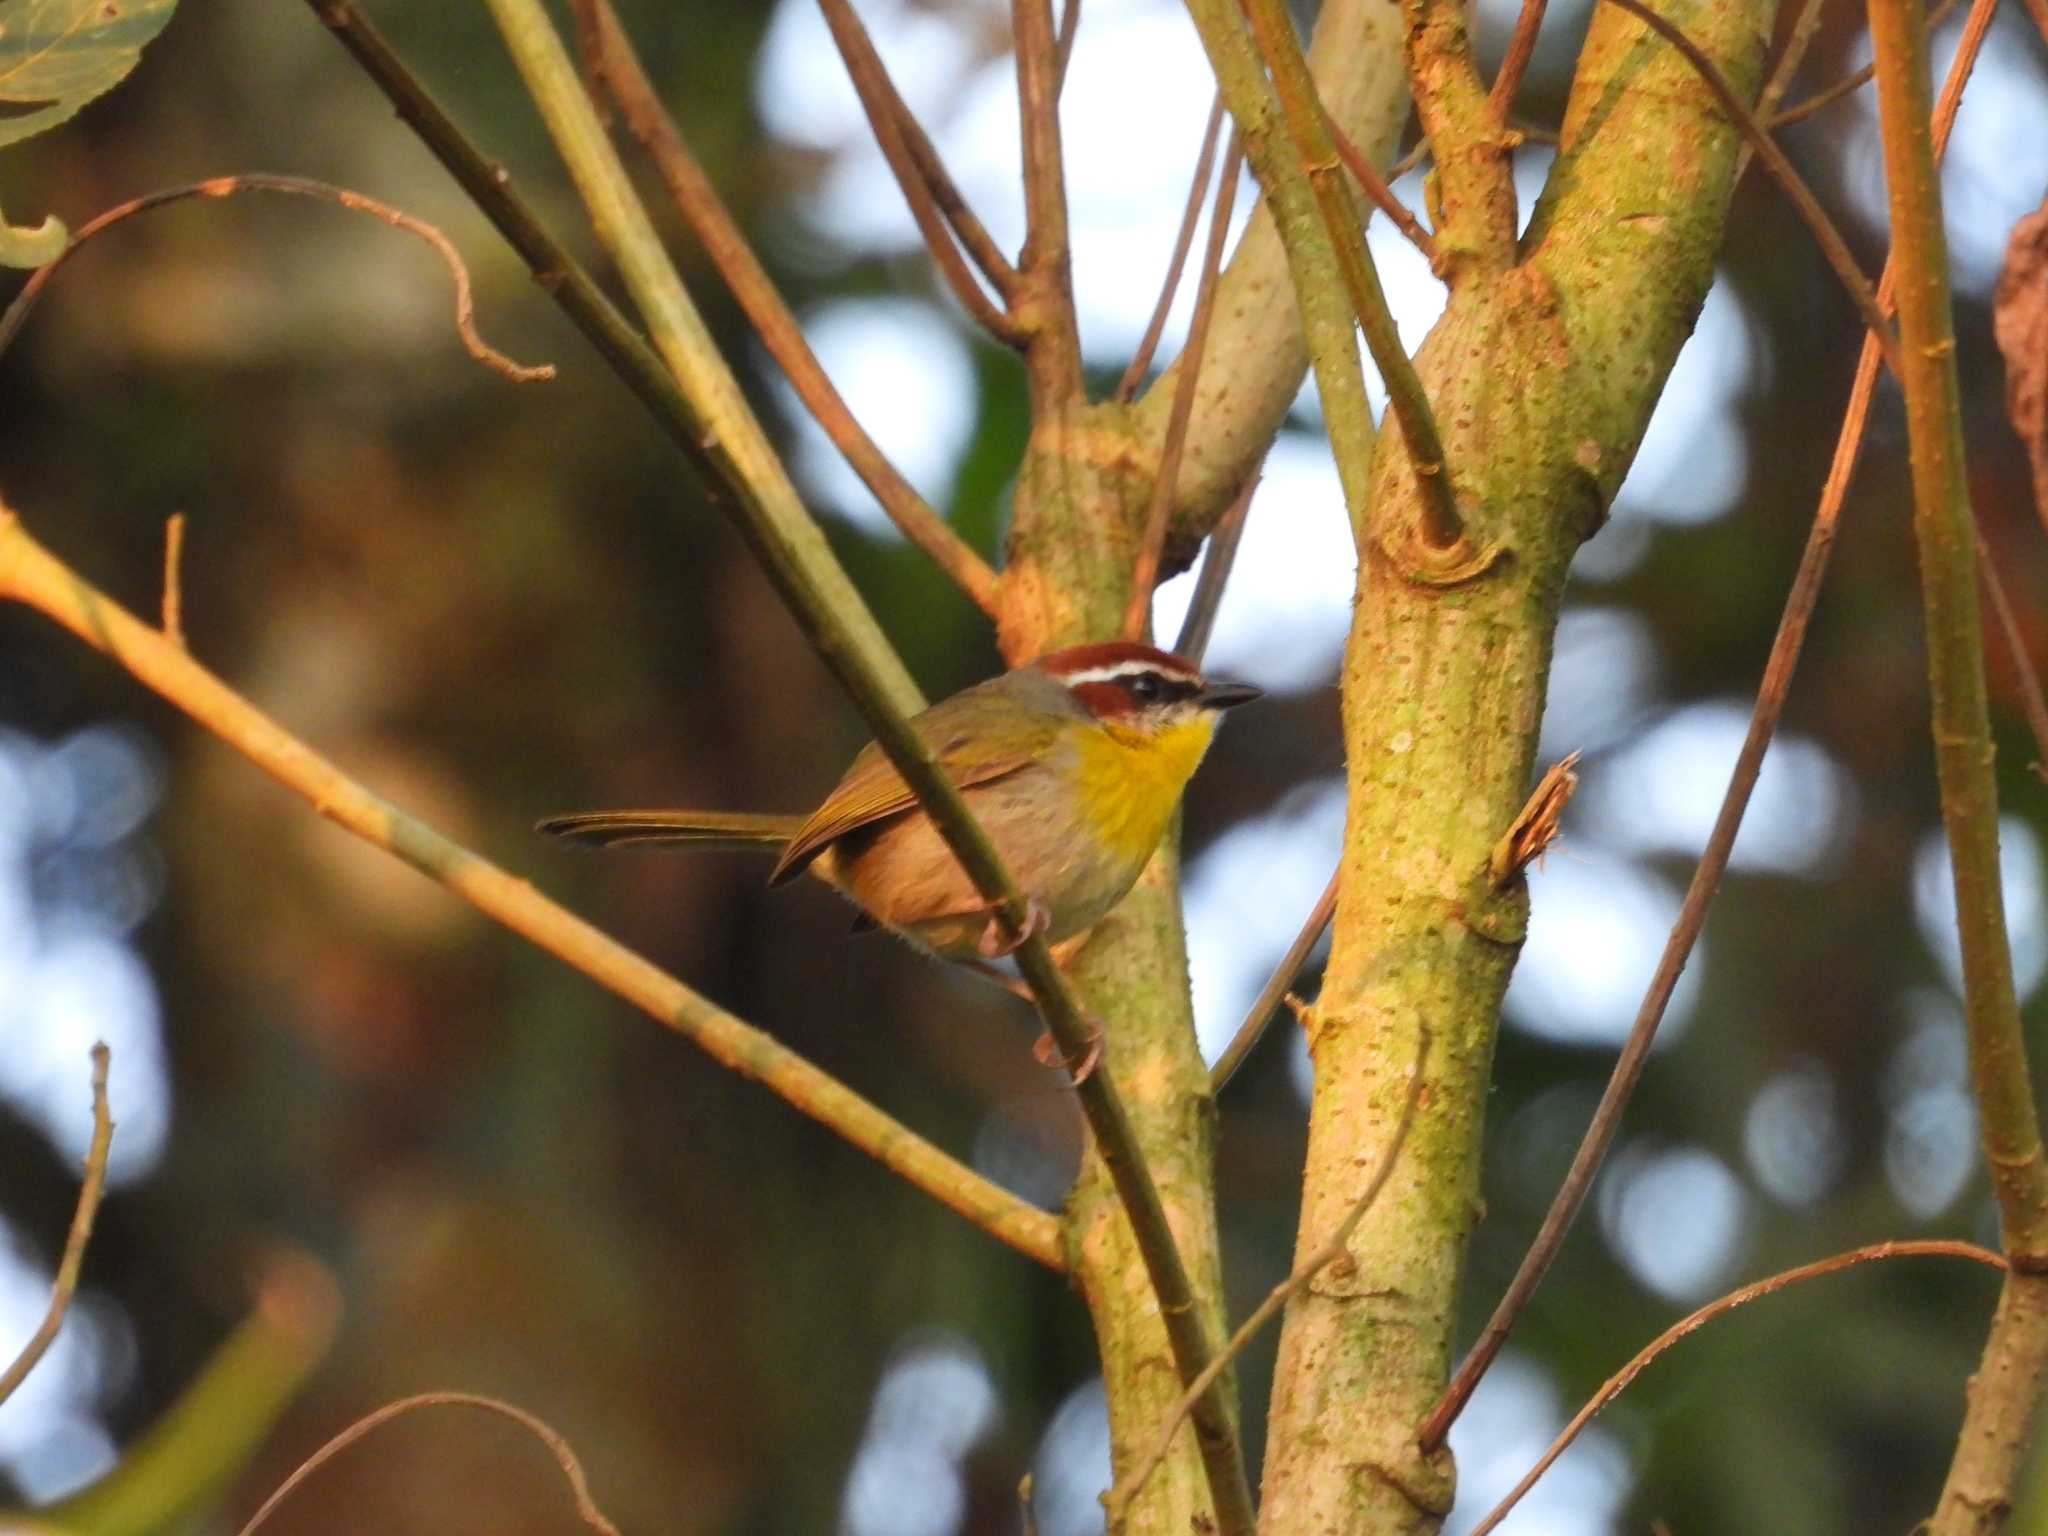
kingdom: Animalia
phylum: Chordata
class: Aves
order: Passeriformes
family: Parulidae
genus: Basileuterus
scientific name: Basileuterus rufifrons
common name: Rufous-capped warbler
